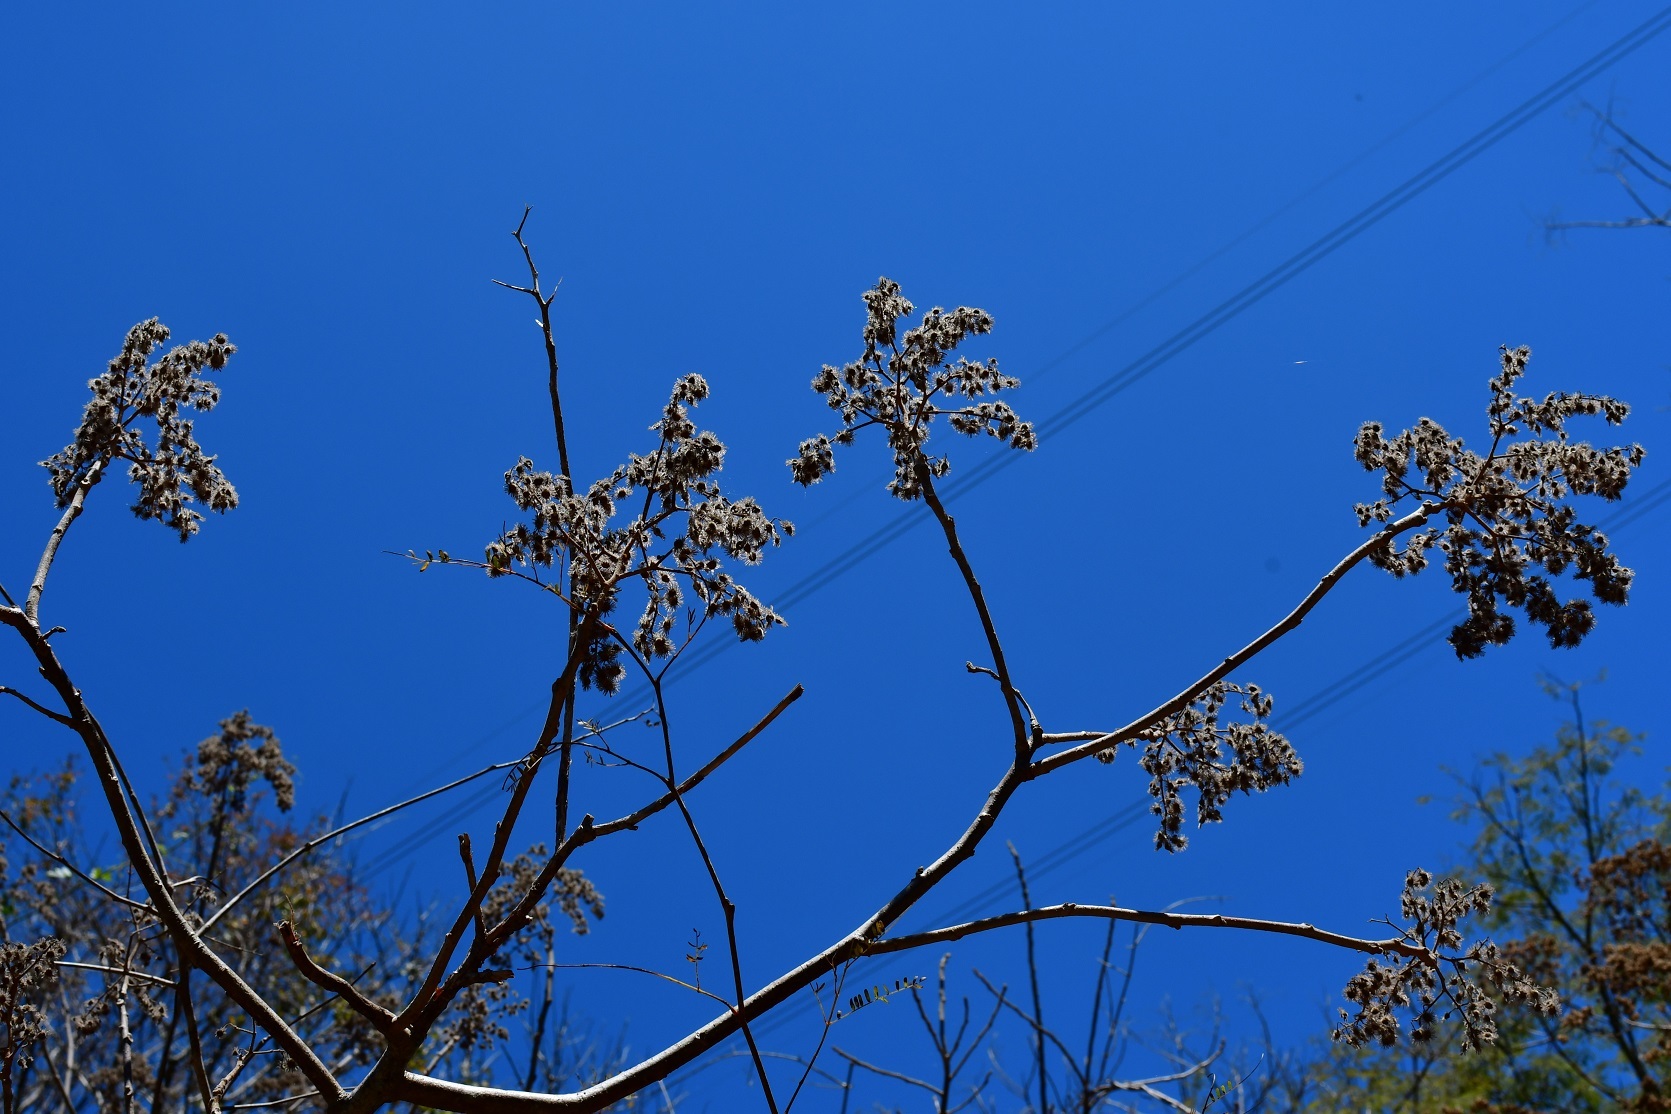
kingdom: Plantae
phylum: Tracheophyta
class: Magnoliopsida
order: Malvales
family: Malvaceae
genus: Heliocarpus
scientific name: Heliocarpus terebinthinaceus
